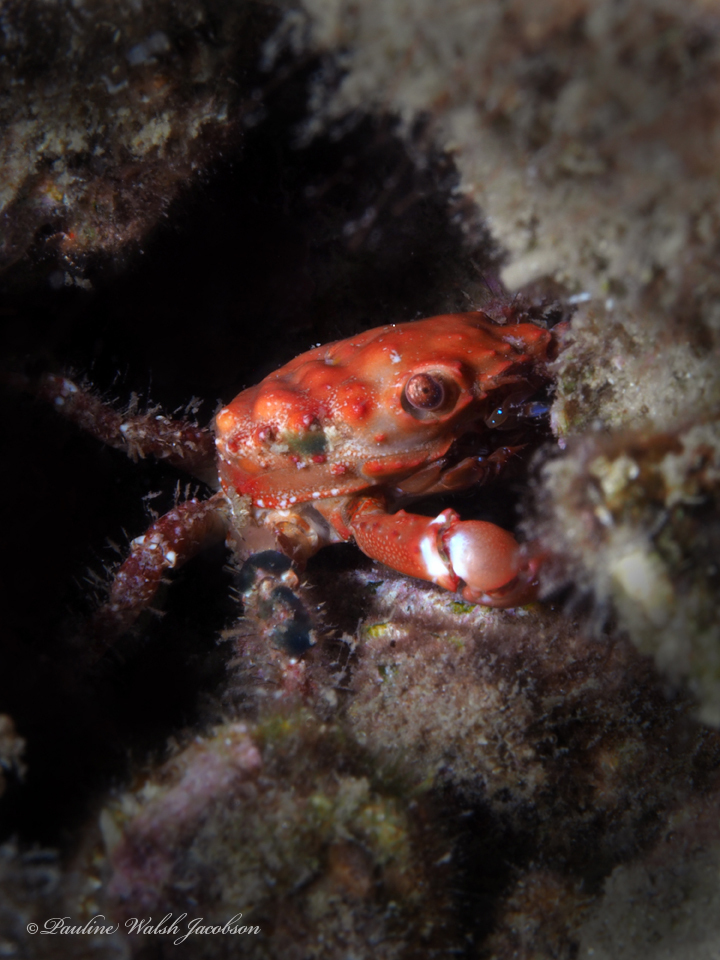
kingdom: Animalia
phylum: Arthropoda
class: Malacostraca
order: Decapoda
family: Mithracidae
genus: Mithraculus
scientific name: Mithraculus forceps
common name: Red-ridged clinging crab
